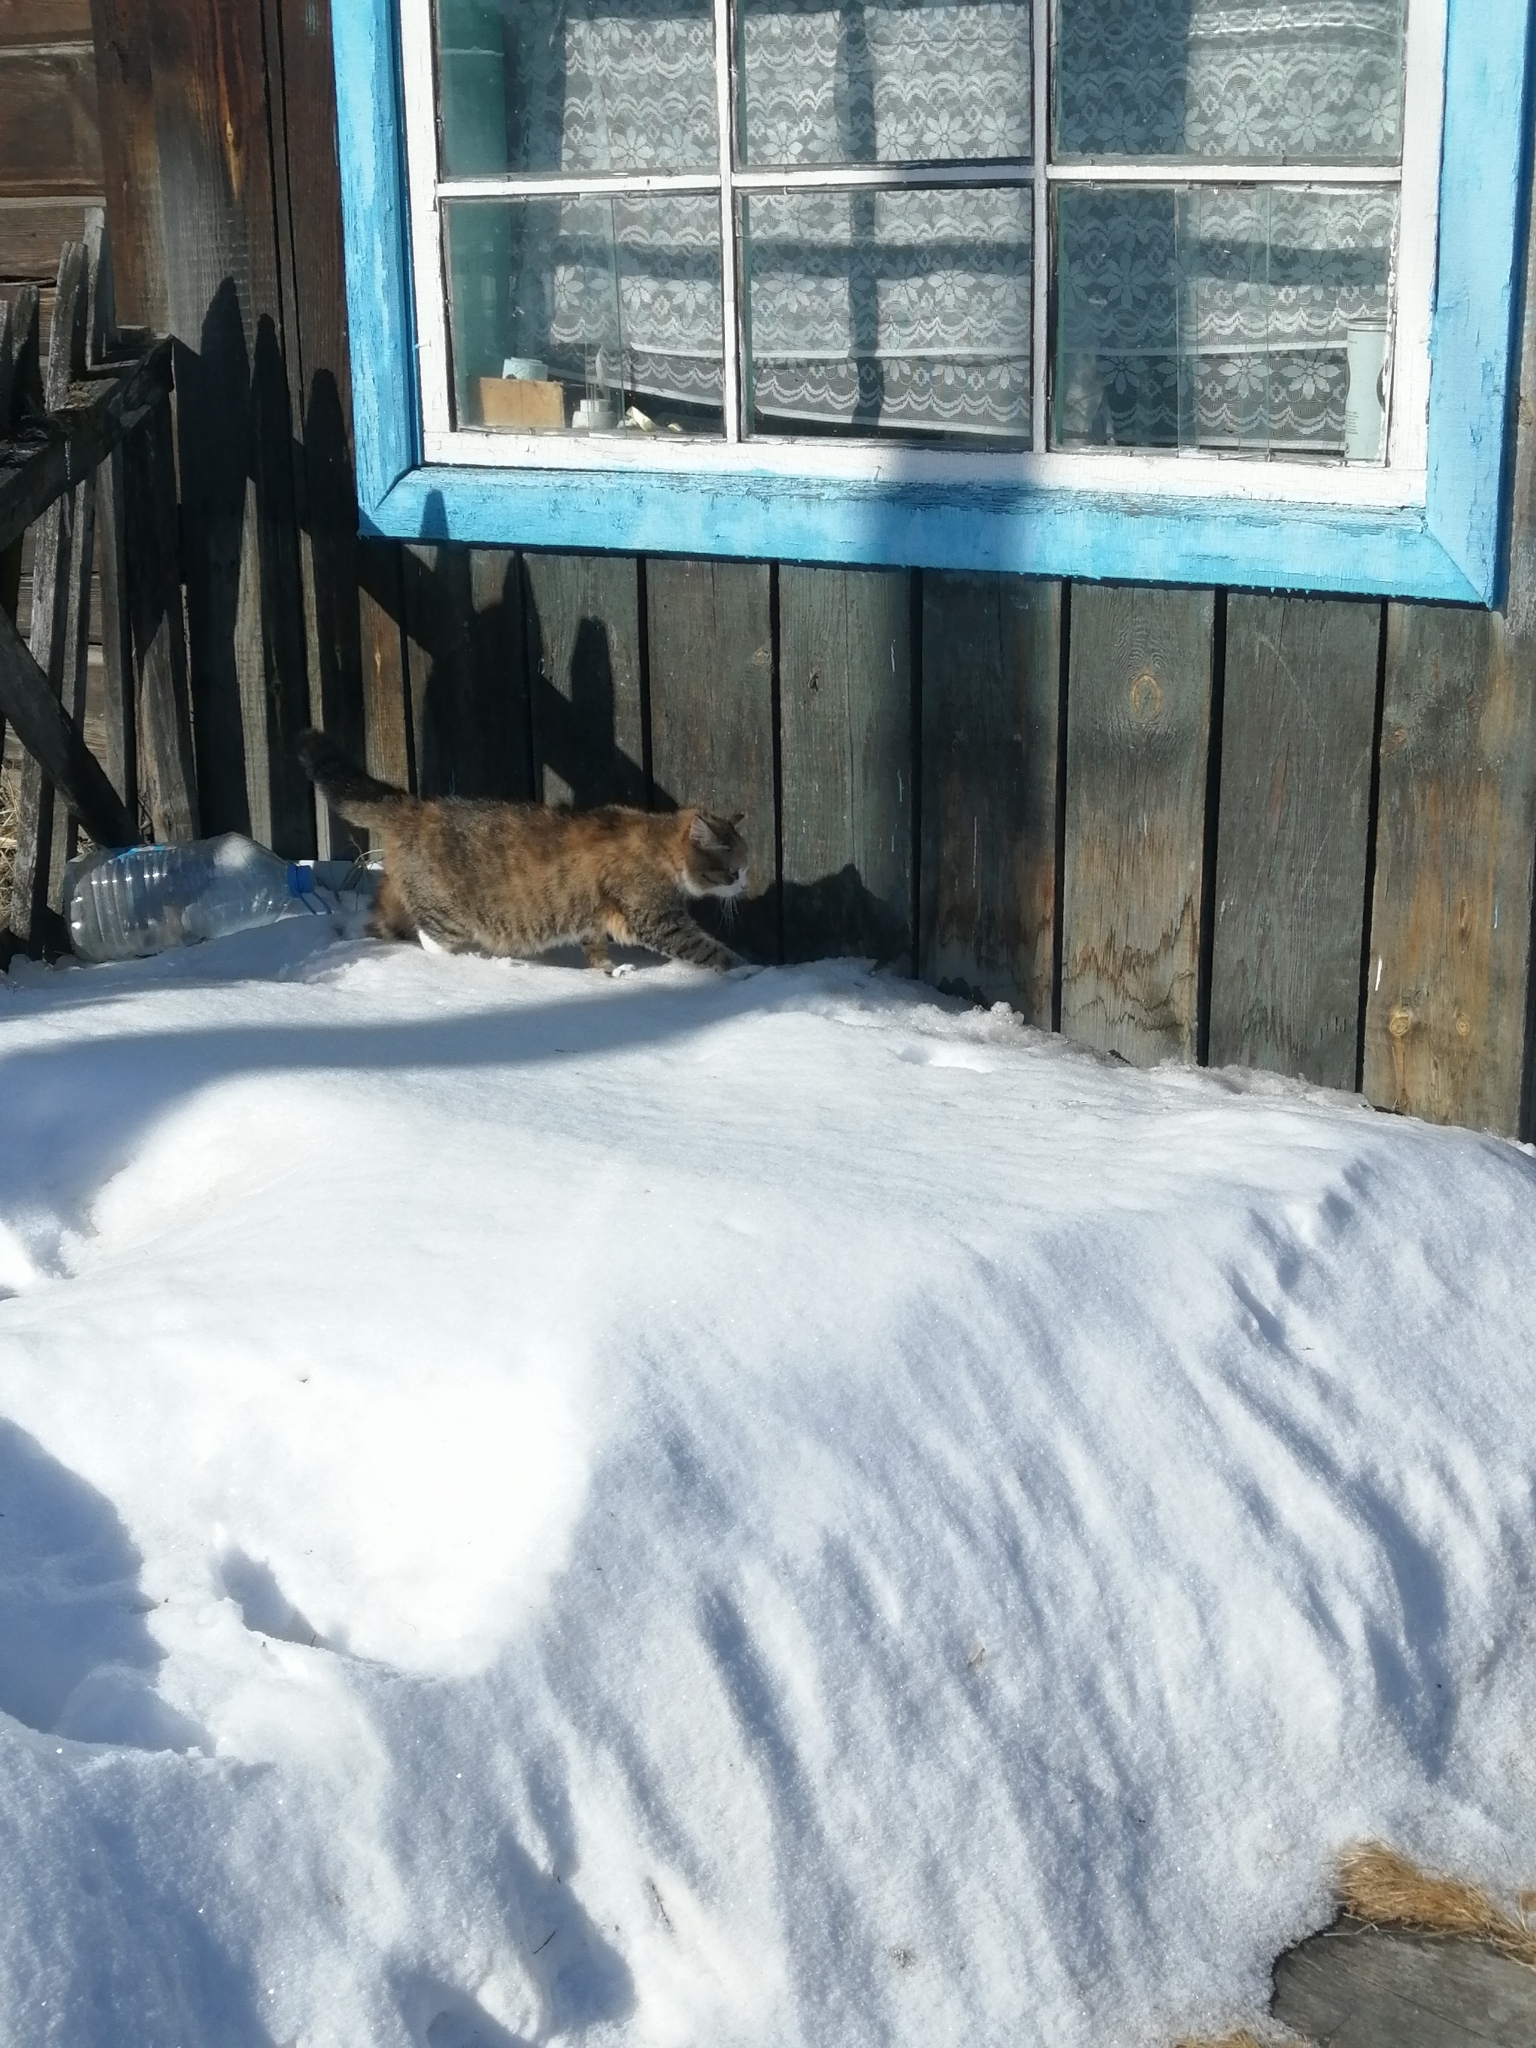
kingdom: Animalia
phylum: Chordata
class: Mammalia
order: Carnivora
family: Felidae
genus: Felis
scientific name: Felis catus
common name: Domestic cat
